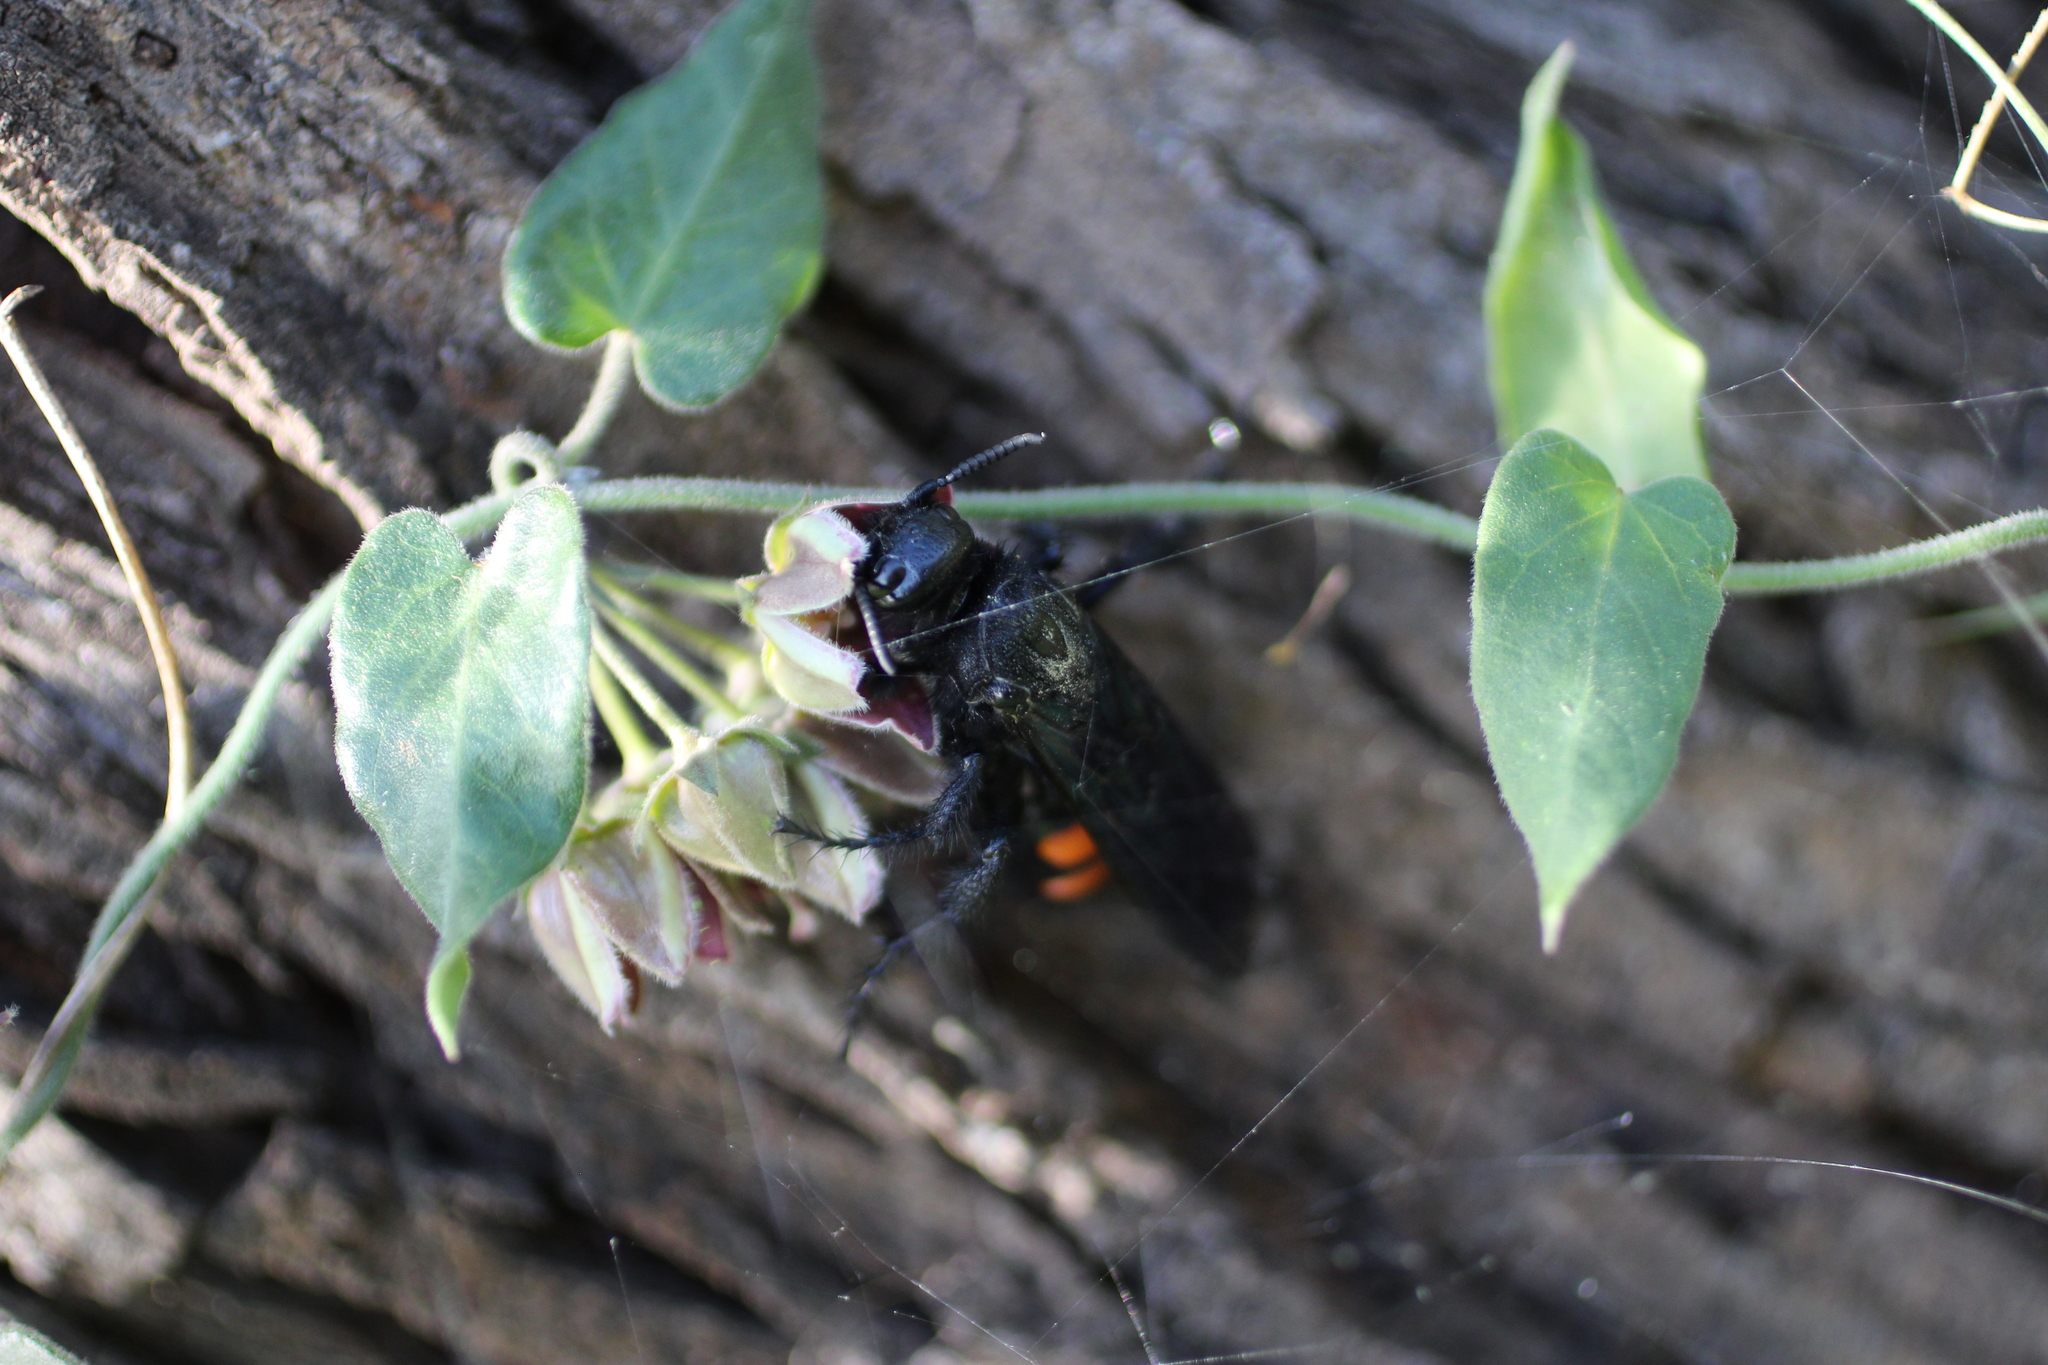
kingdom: Animalia
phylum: Arthropoda
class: Insecta
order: Hymenoptera
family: Scoliidae
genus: Pygodasis
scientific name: Pygodasis ephippium
